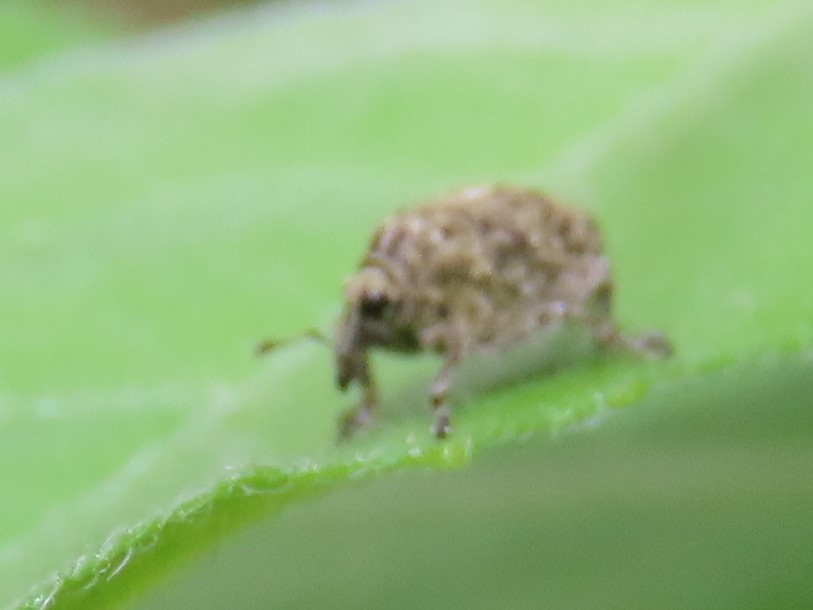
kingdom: Animalia
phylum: Arthropoda
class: Insecta
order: Coleoptera
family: Curculionidae
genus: Acanthoscelidius
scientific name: Acanthoscelidius acephalus
